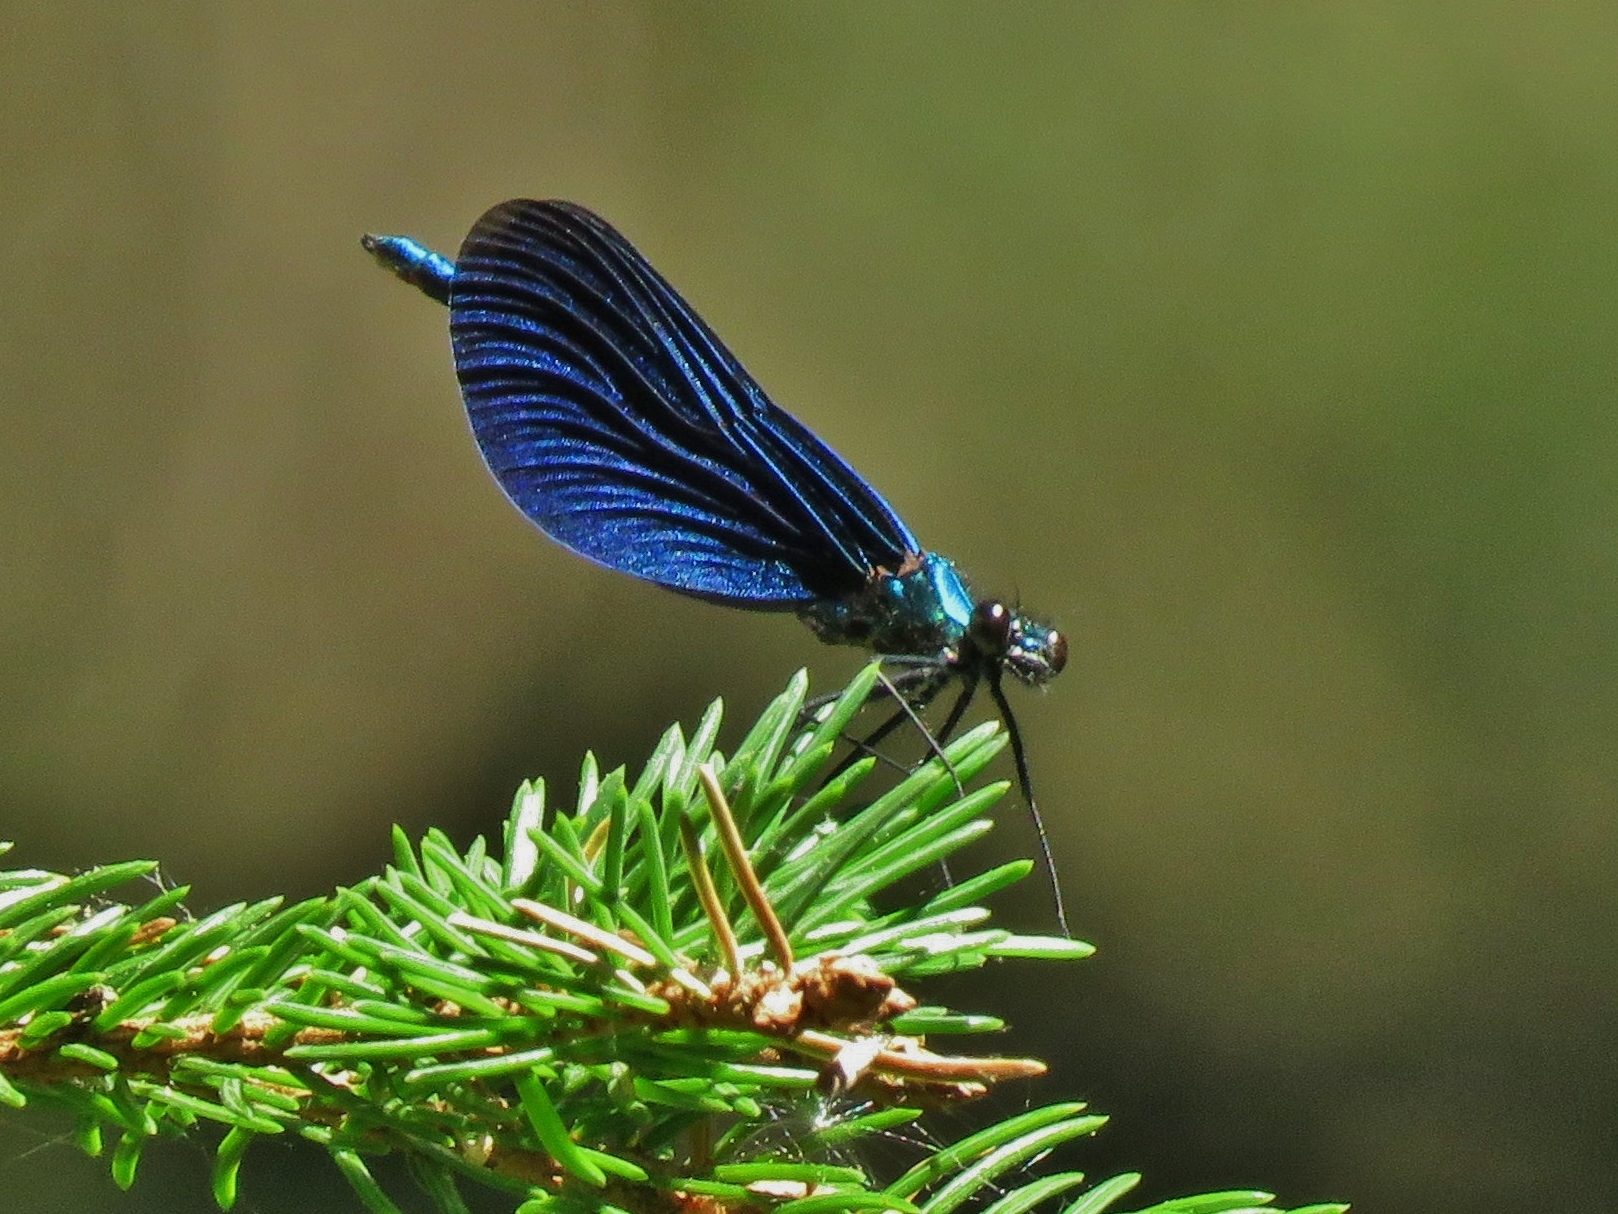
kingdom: Animalia
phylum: Arthropoda
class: Insecta
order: Odonata
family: Calopterygidae
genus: Calopteryx
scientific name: Calopteryx virgo
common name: Beautiful demoiselle
